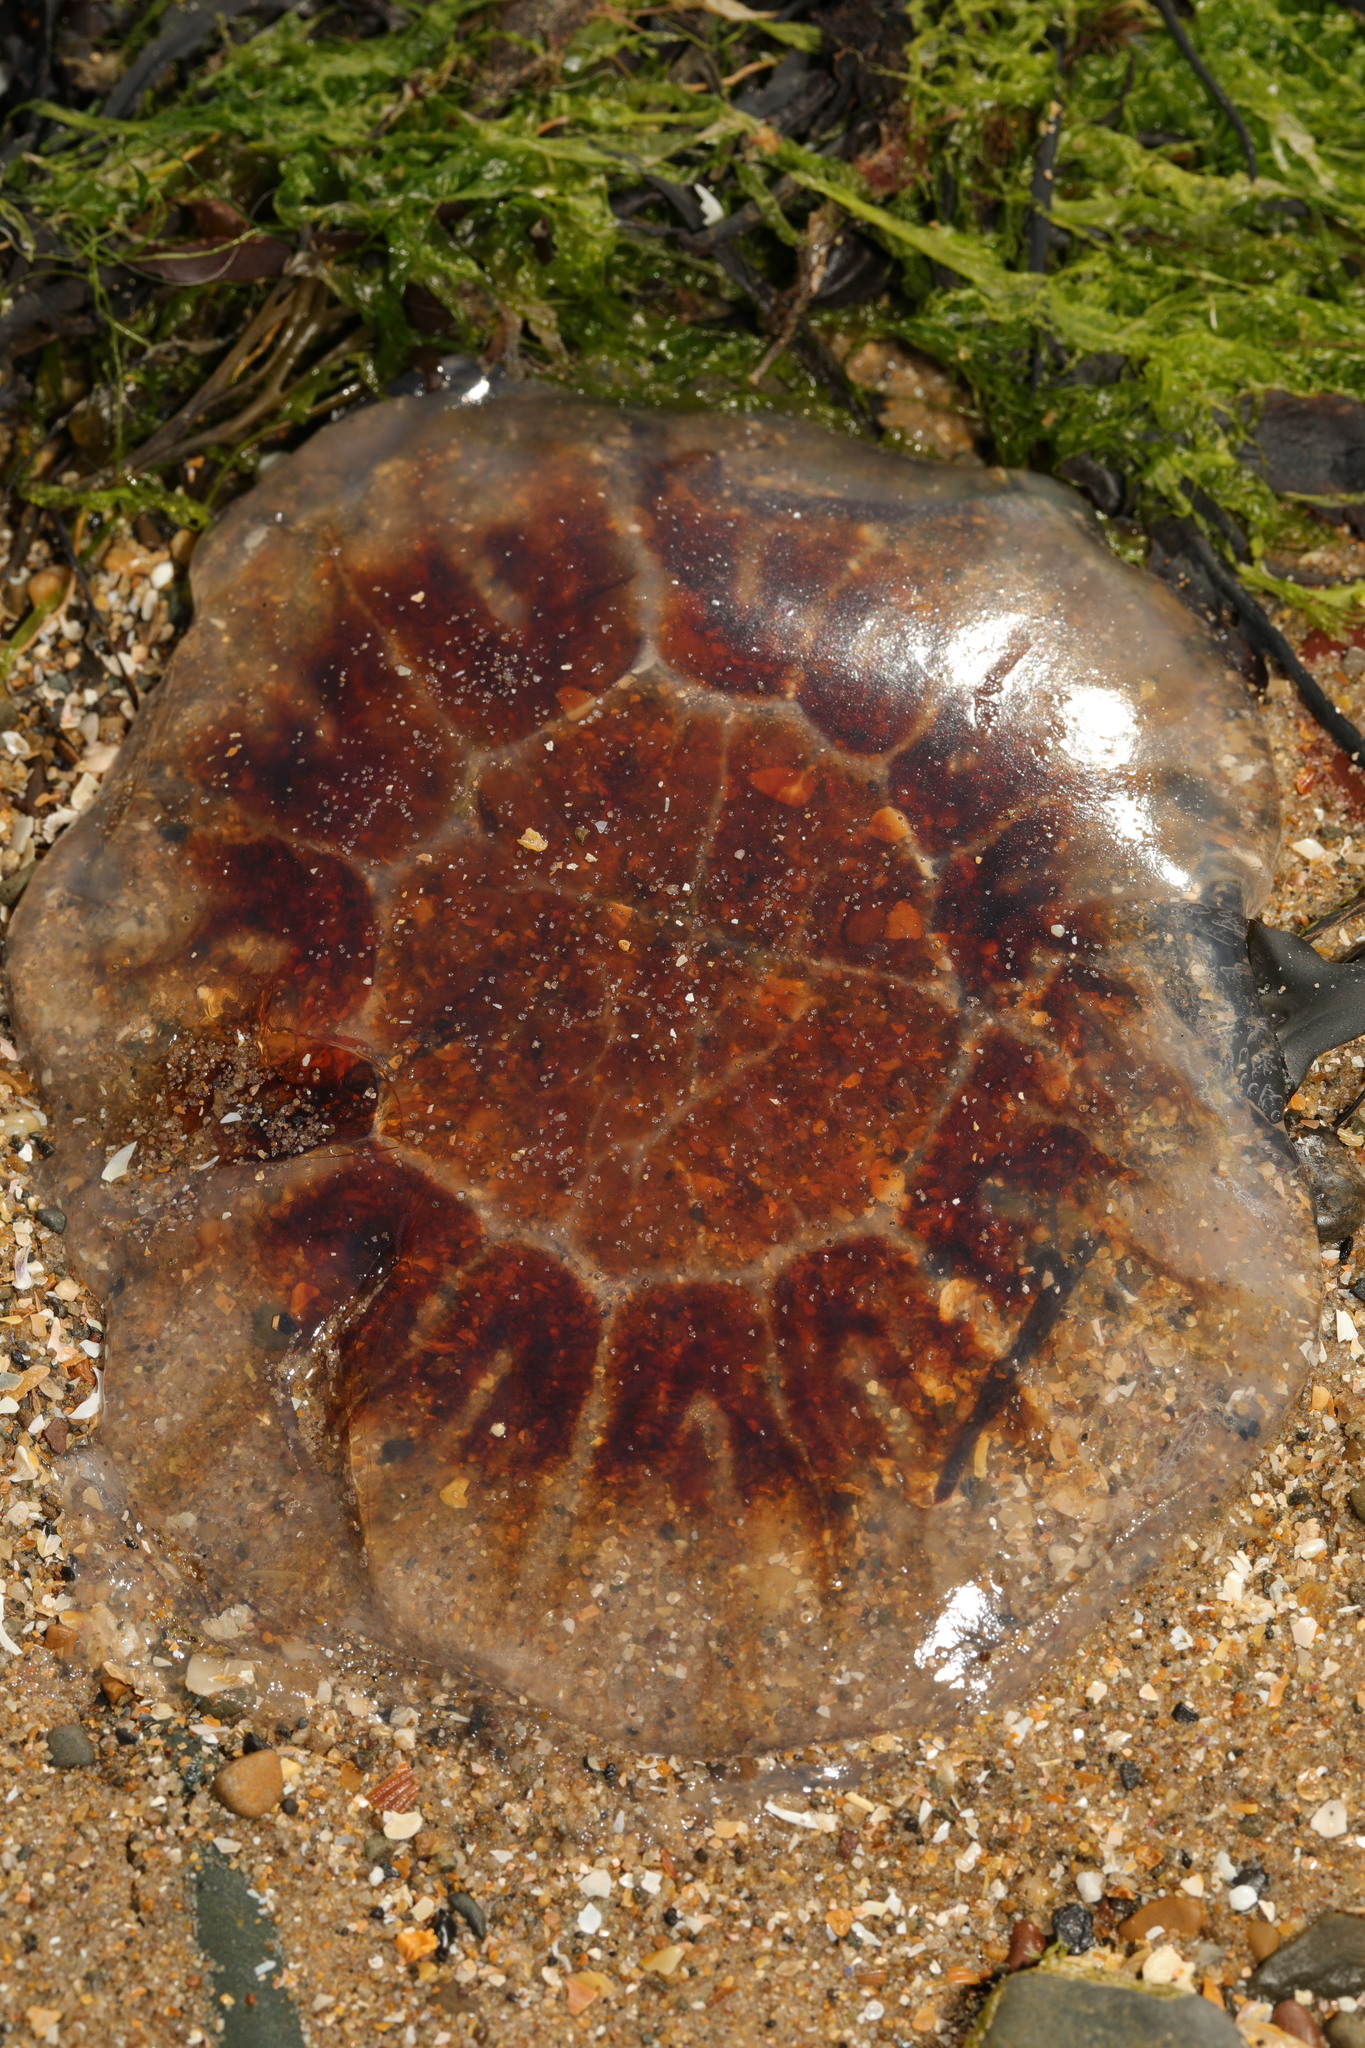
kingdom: Animalia
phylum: Cnidaria
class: Scyphozoa
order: Semaeostomeae
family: Cyaneidae
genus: Cyanea
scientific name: Cyanea capillata
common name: Lion's mane jellyfish
